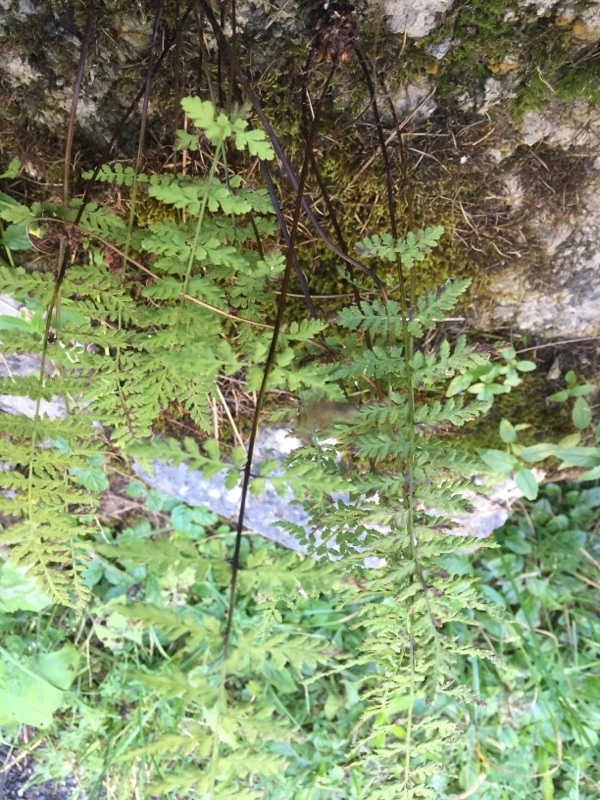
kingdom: Plantae
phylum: Tracheophyta
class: Polypodiopsida
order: Polypodiales
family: Cystopteridaceae
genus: Cystopteris
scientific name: Cystopteris fragilis
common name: Brittle bladder fern
